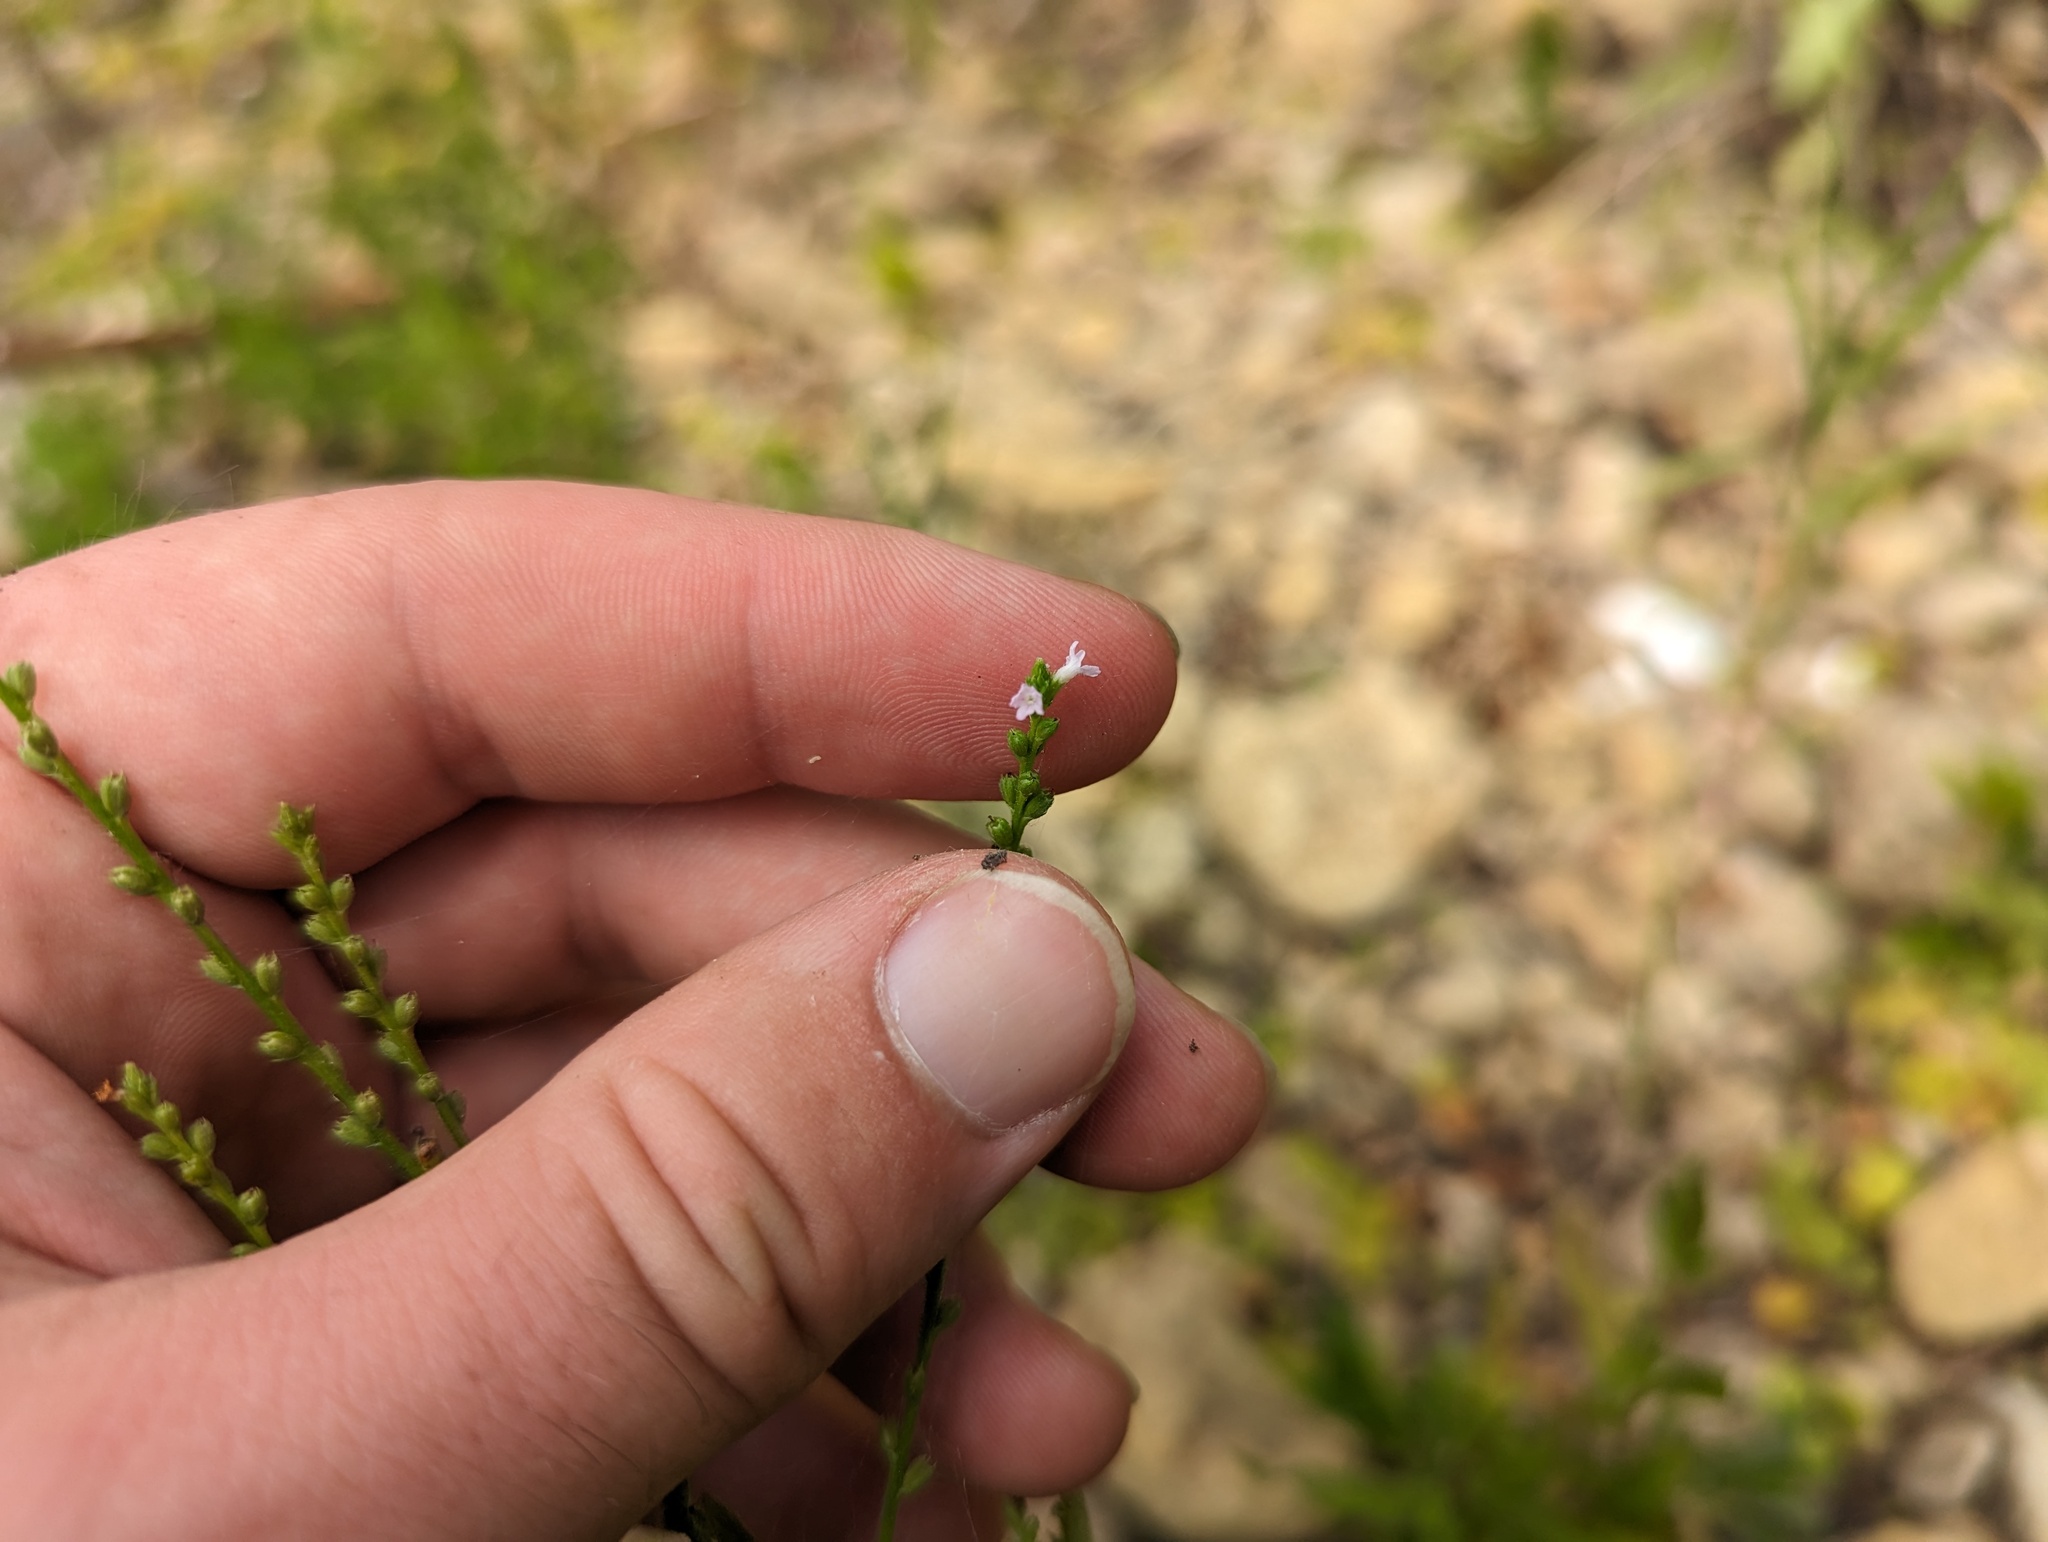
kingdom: Plantae
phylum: Tracheophyta
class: Magnoliopsida
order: Lamiales
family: Verbenaceae
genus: Verbena
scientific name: Verbena urticifolia
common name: Nettle-leaved vervain
